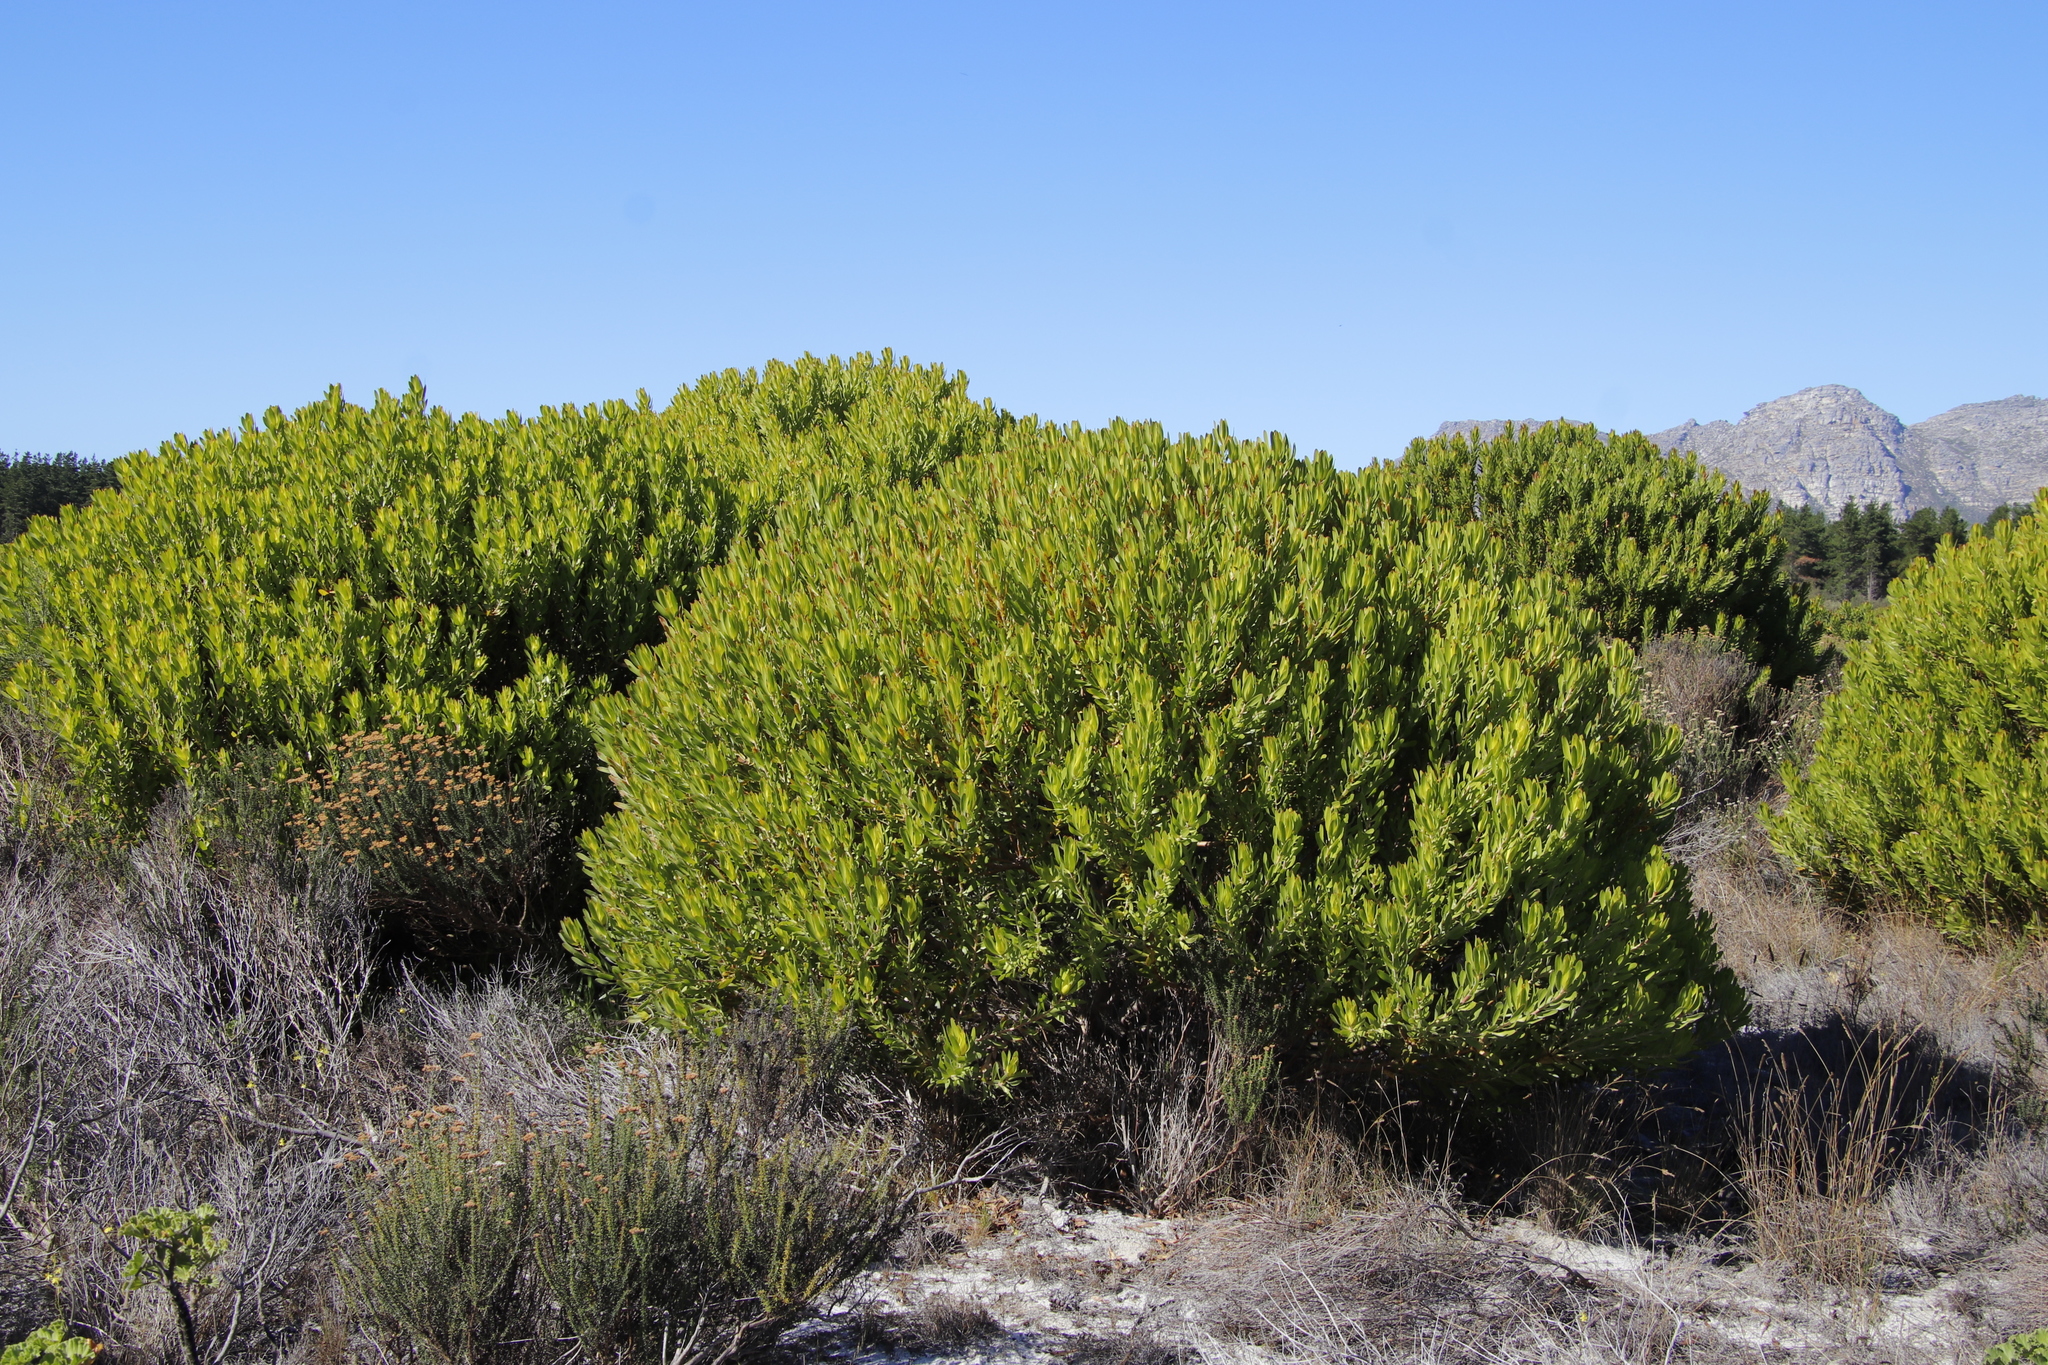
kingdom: Plantae
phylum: Tracheophyta
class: Magnoliopsida
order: Proteales
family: Proteaceae
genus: Leucadendron
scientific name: Leucadendron laureolum
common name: Golden sunshinebush
